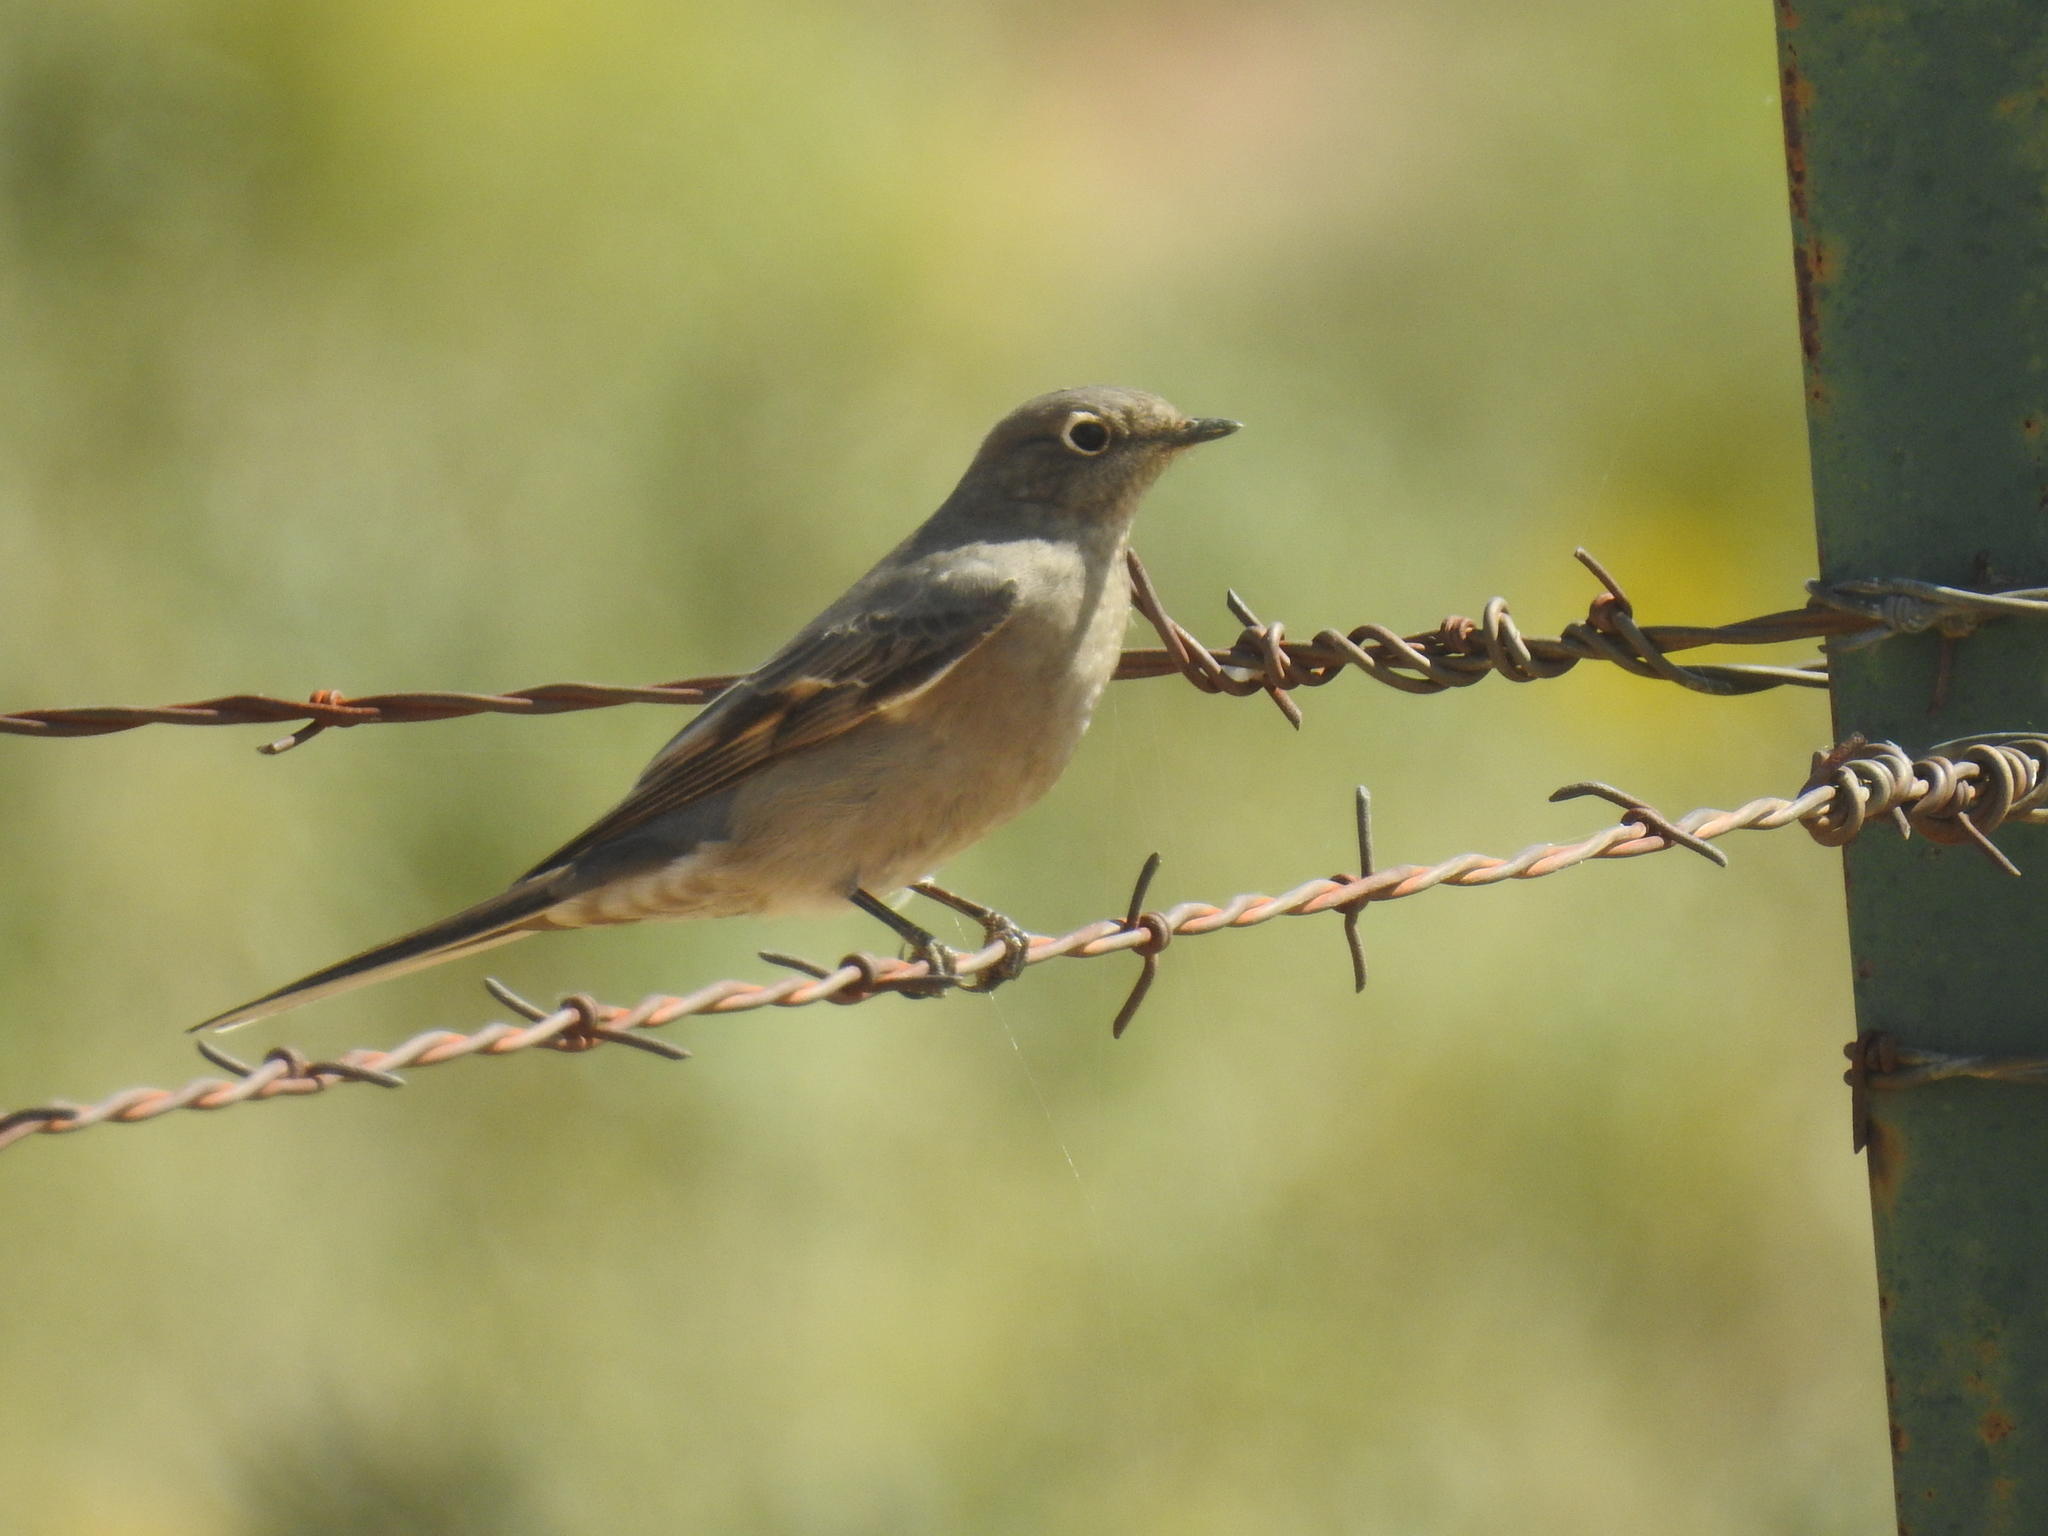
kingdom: Animalia
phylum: Chordata
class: Aves
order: Passeriformes
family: Turdidae
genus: Myadestes
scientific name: Myadestes townsendi
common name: Townsend's solitaire
